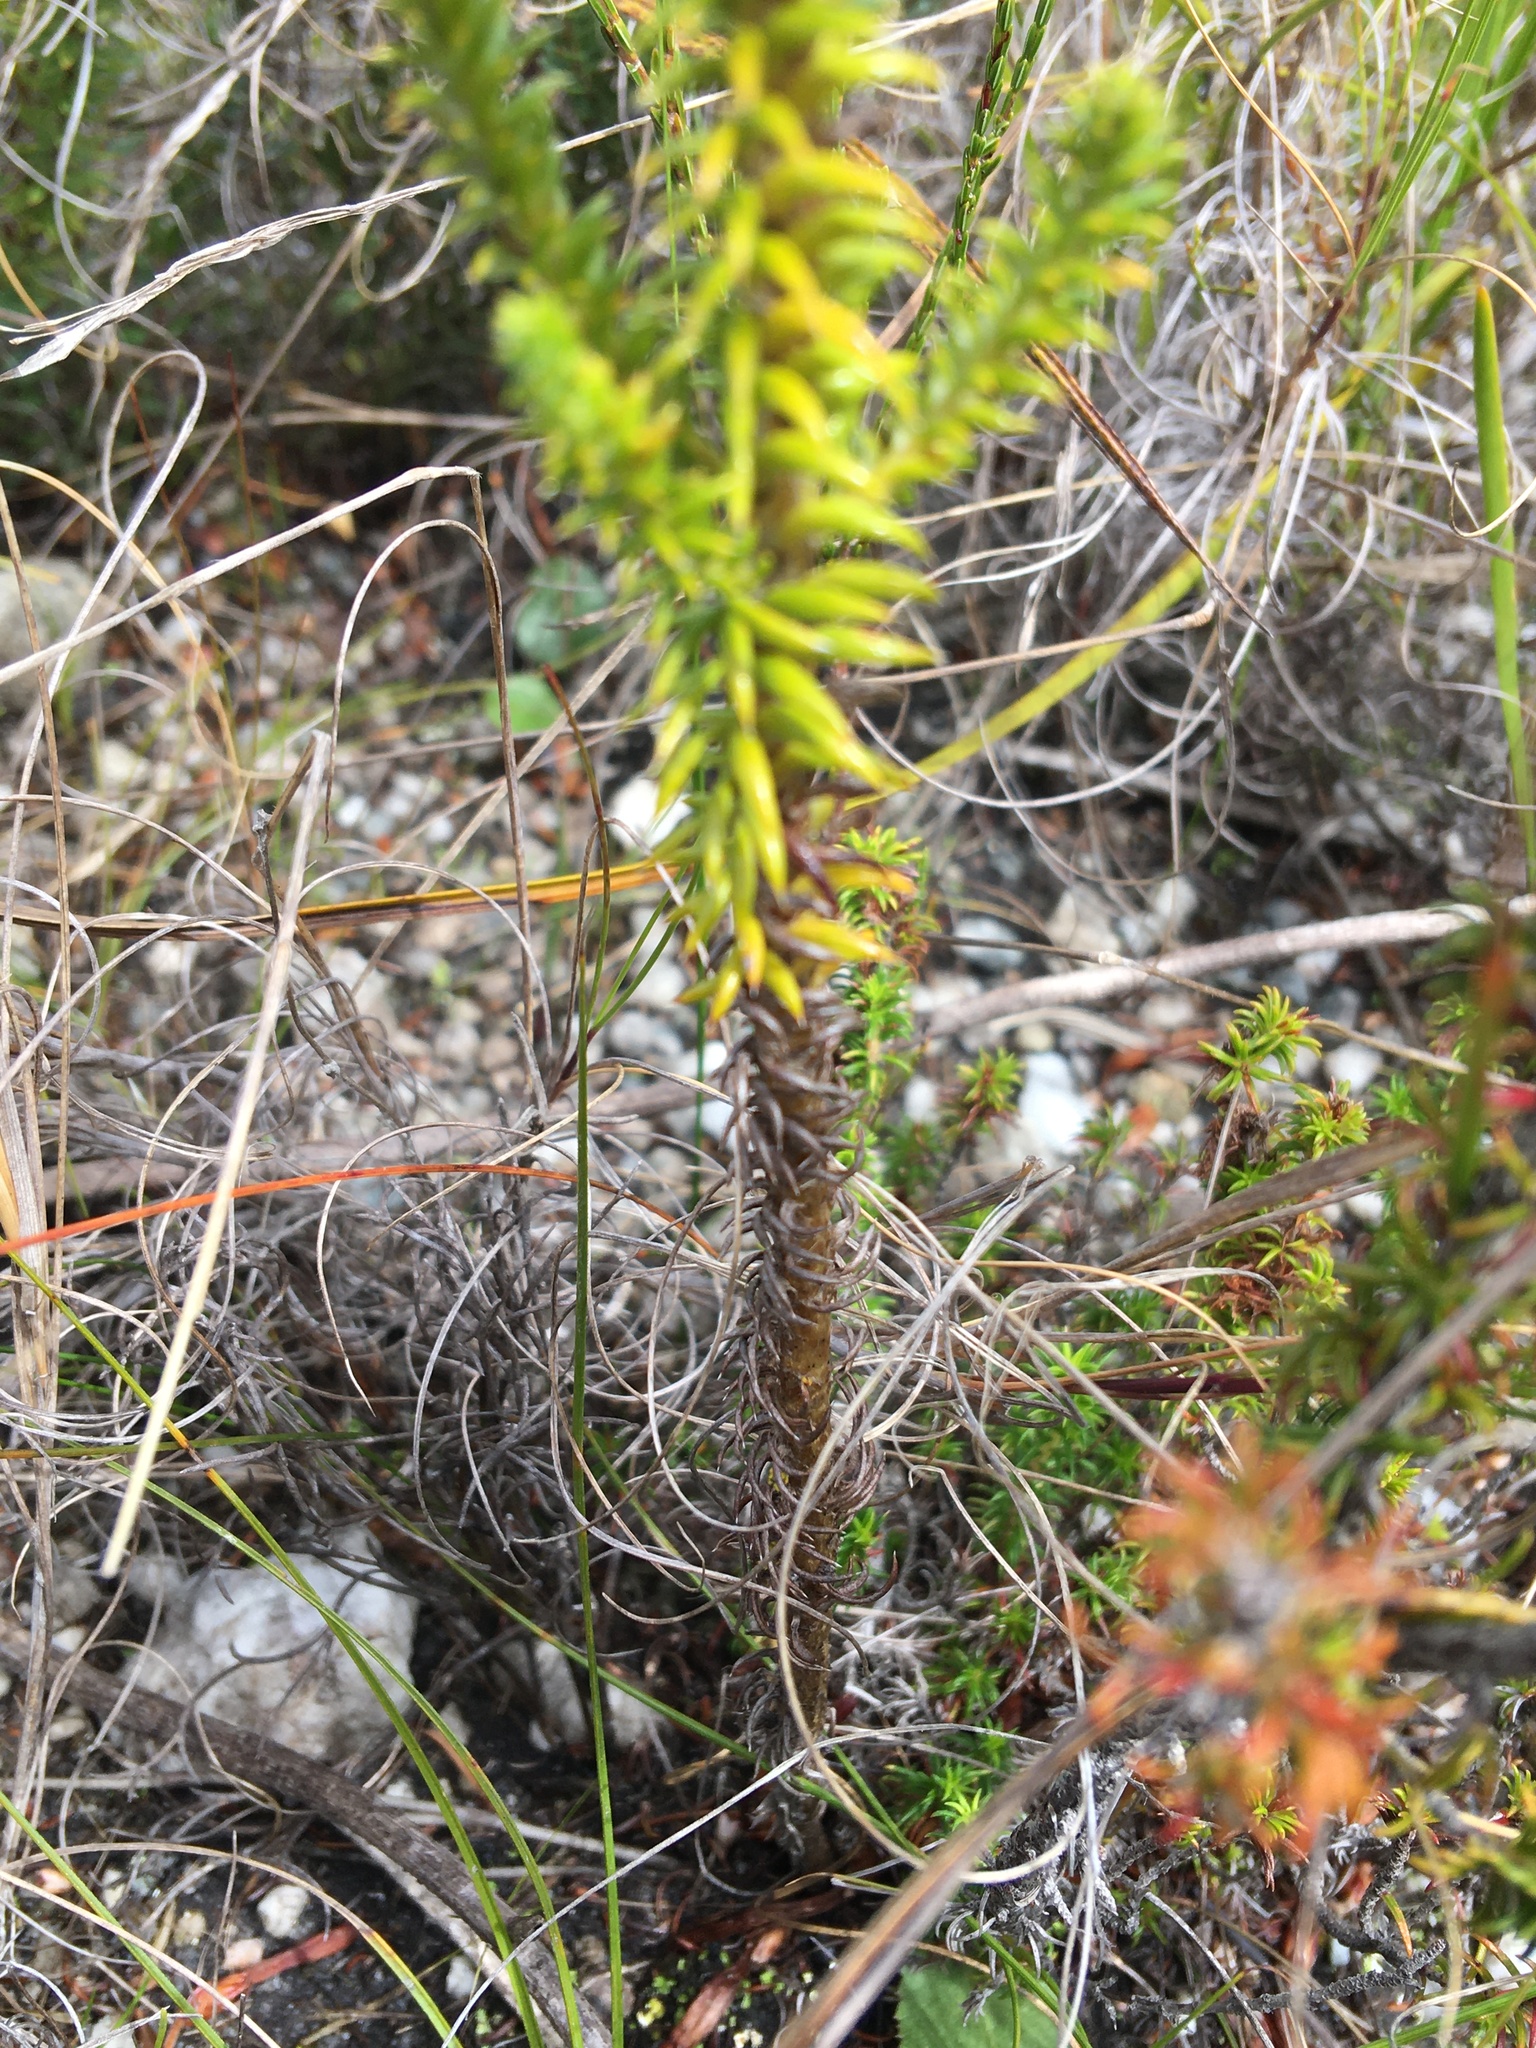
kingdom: Plantae
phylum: Tracheophyta
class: Magnoliopsida
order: Asterales
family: Asteraceae
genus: Stoebe
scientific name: Stoebe aethiopica
